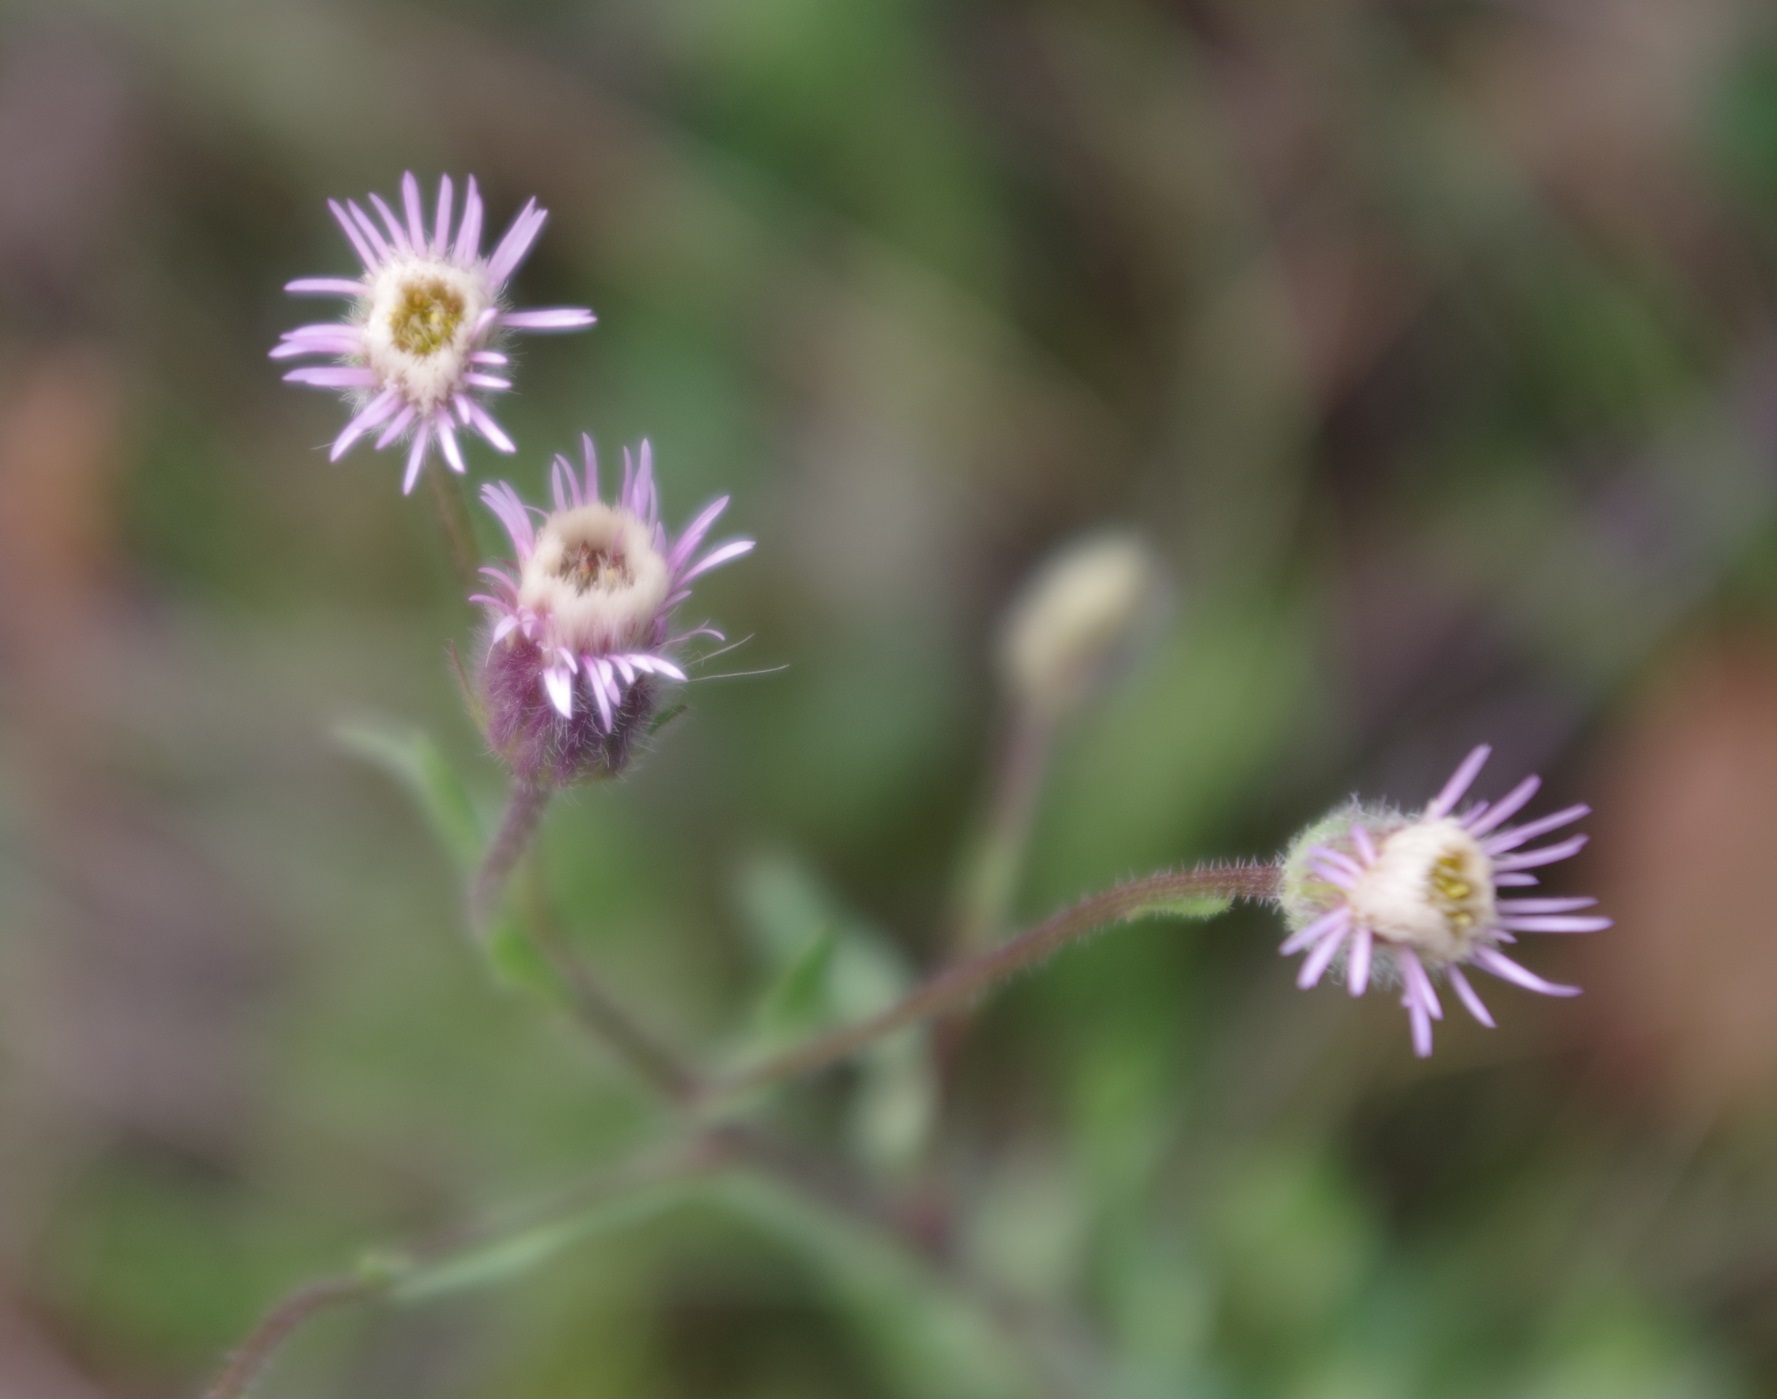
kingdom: Plantae
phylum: Tracheophyta
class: Magnoliopsida
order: Asterales
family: Asteraceae
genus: Erigeron
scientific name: Erigeron acris
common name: Blue fleabane
